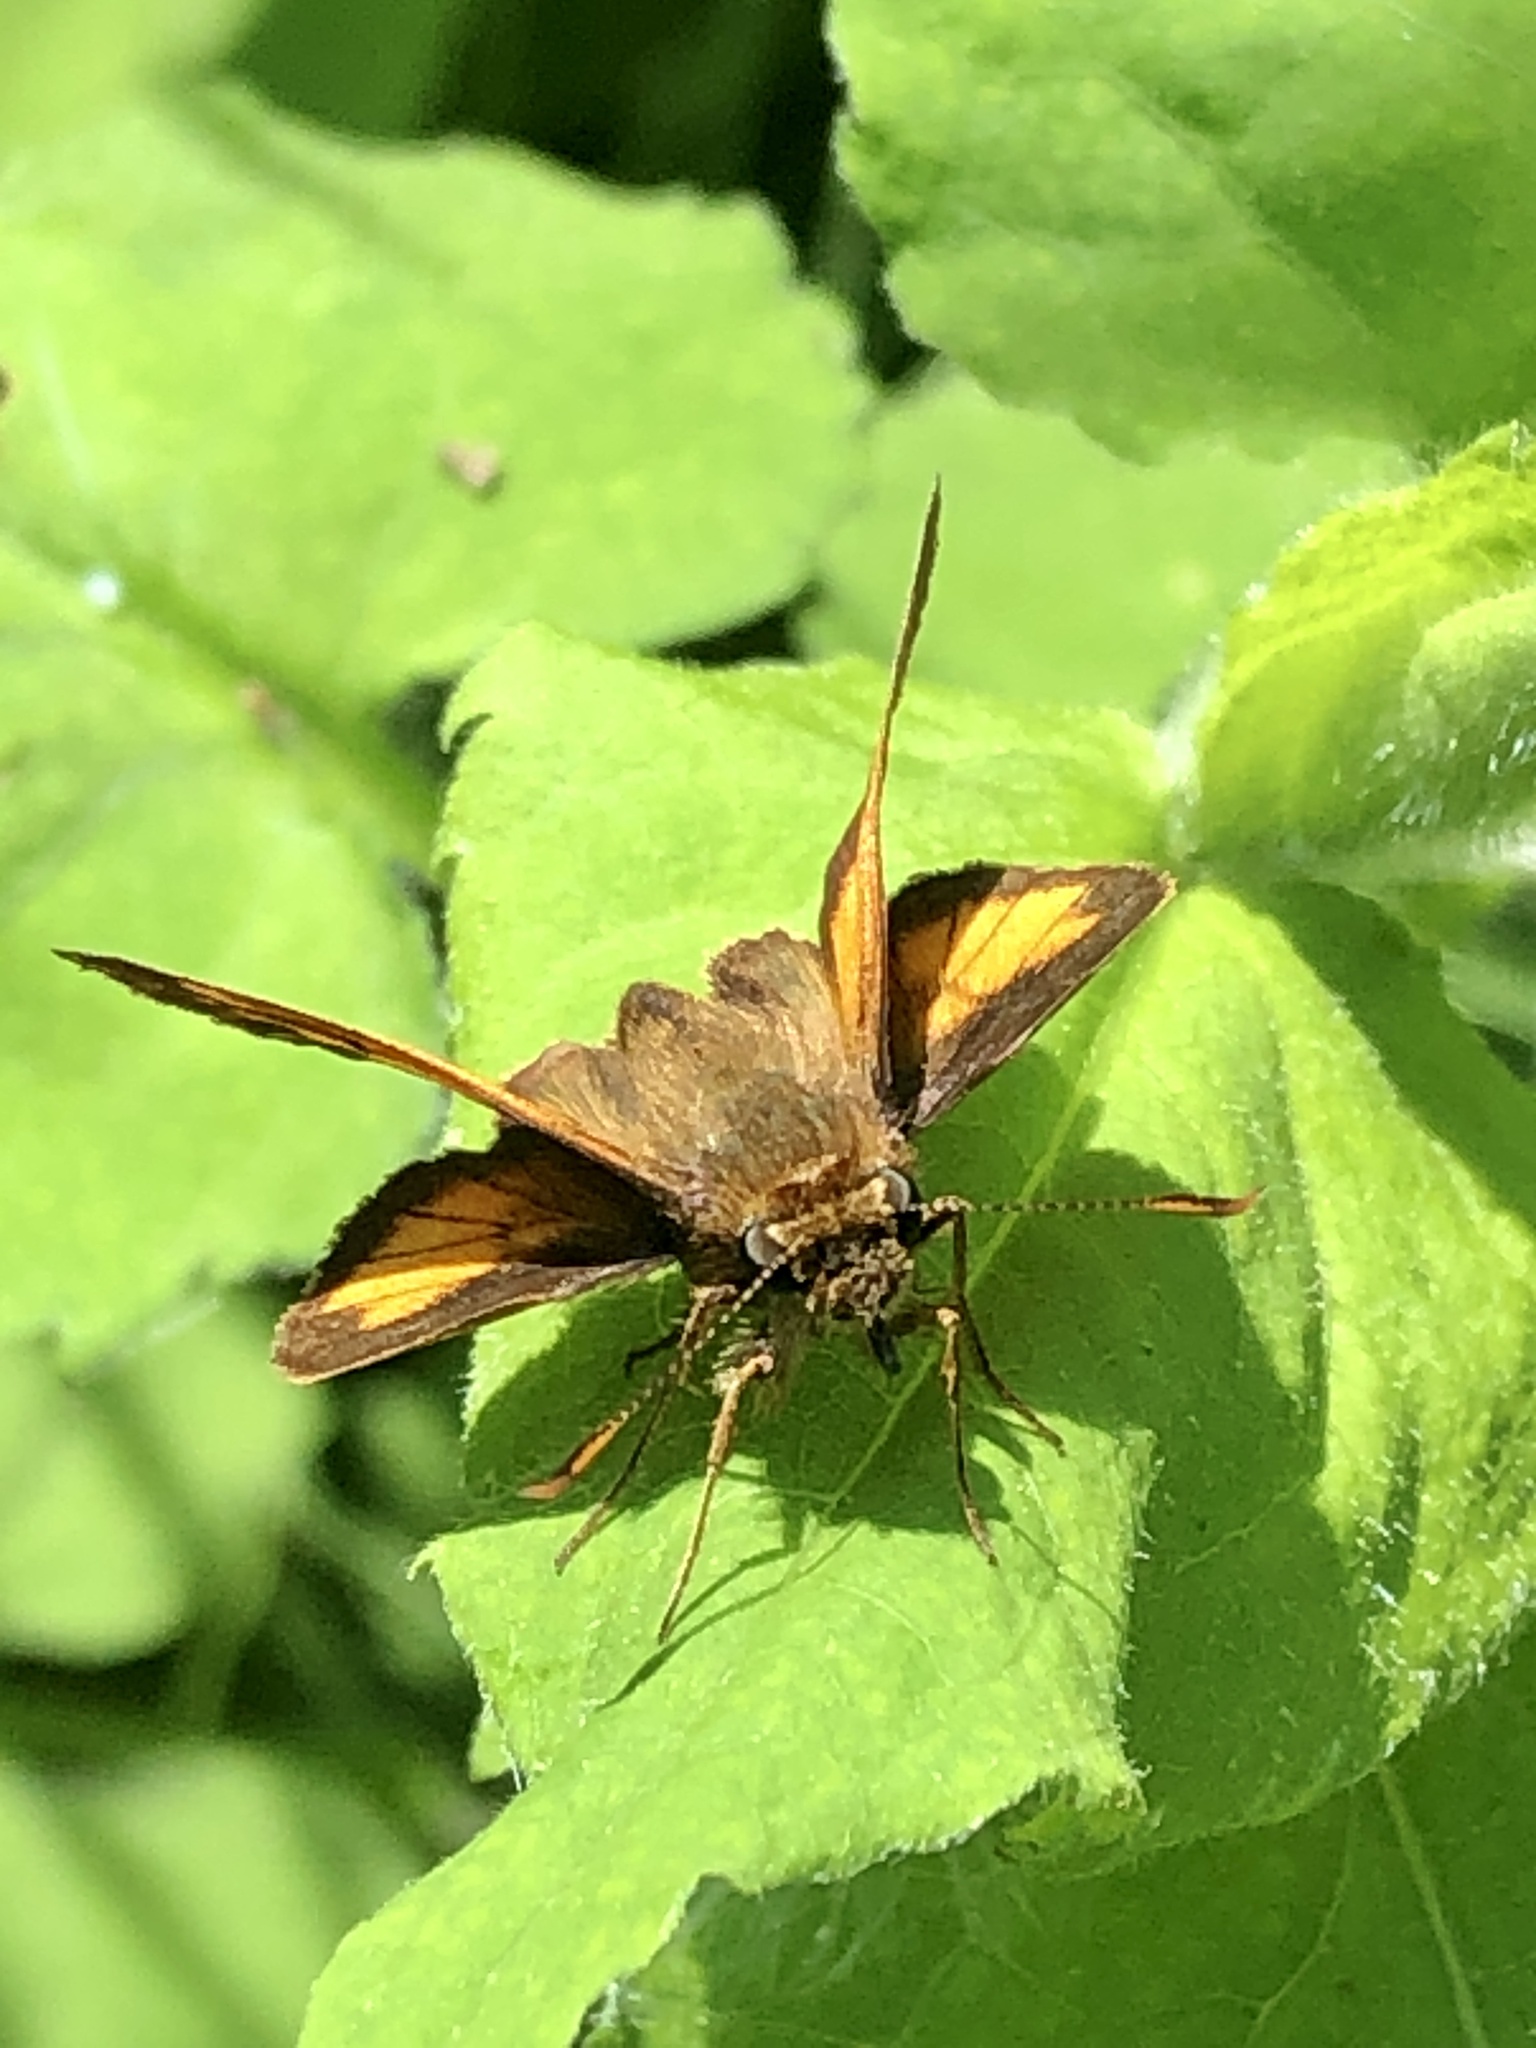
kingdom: Animalia
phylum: Arthropoda
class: Insecta
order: Lepidoptera
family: Hesperiidae
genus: Lon
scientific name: Lon hobomok
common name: Hobomok skipper
